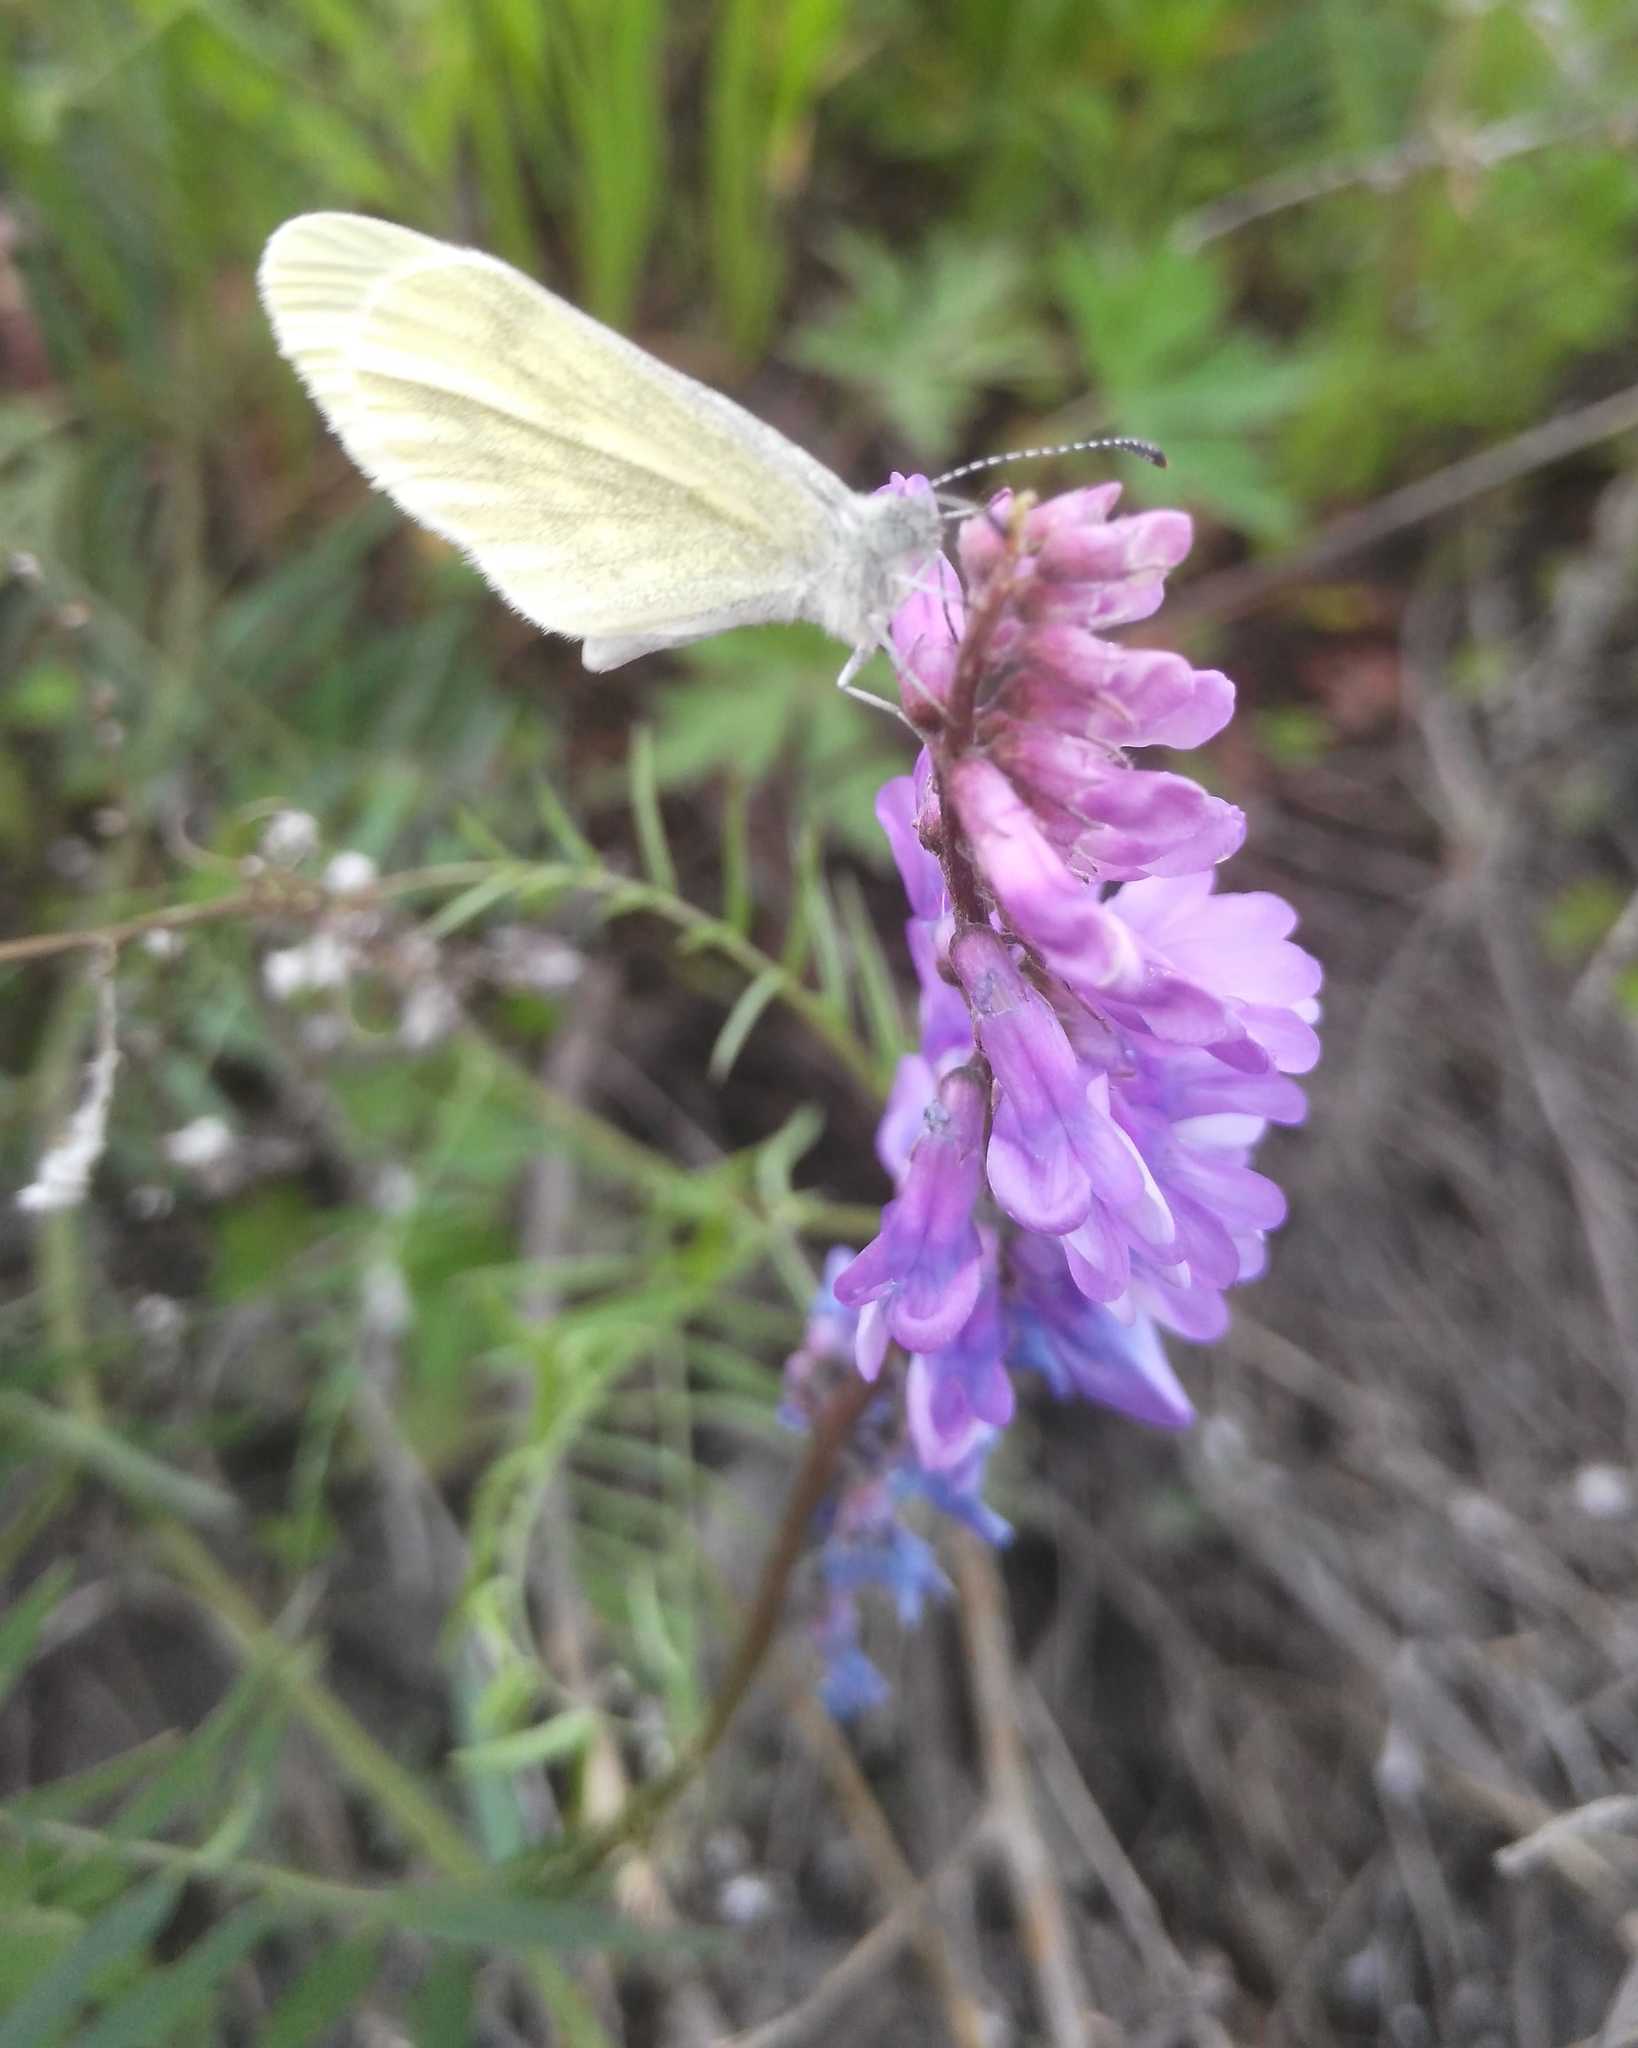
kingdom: Plantae
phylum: Tracheophyta
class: Magnoliopsida
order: Fabales
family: Fabaceae
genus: Vicia
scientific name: Vicia cracca
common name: Bird vetch
